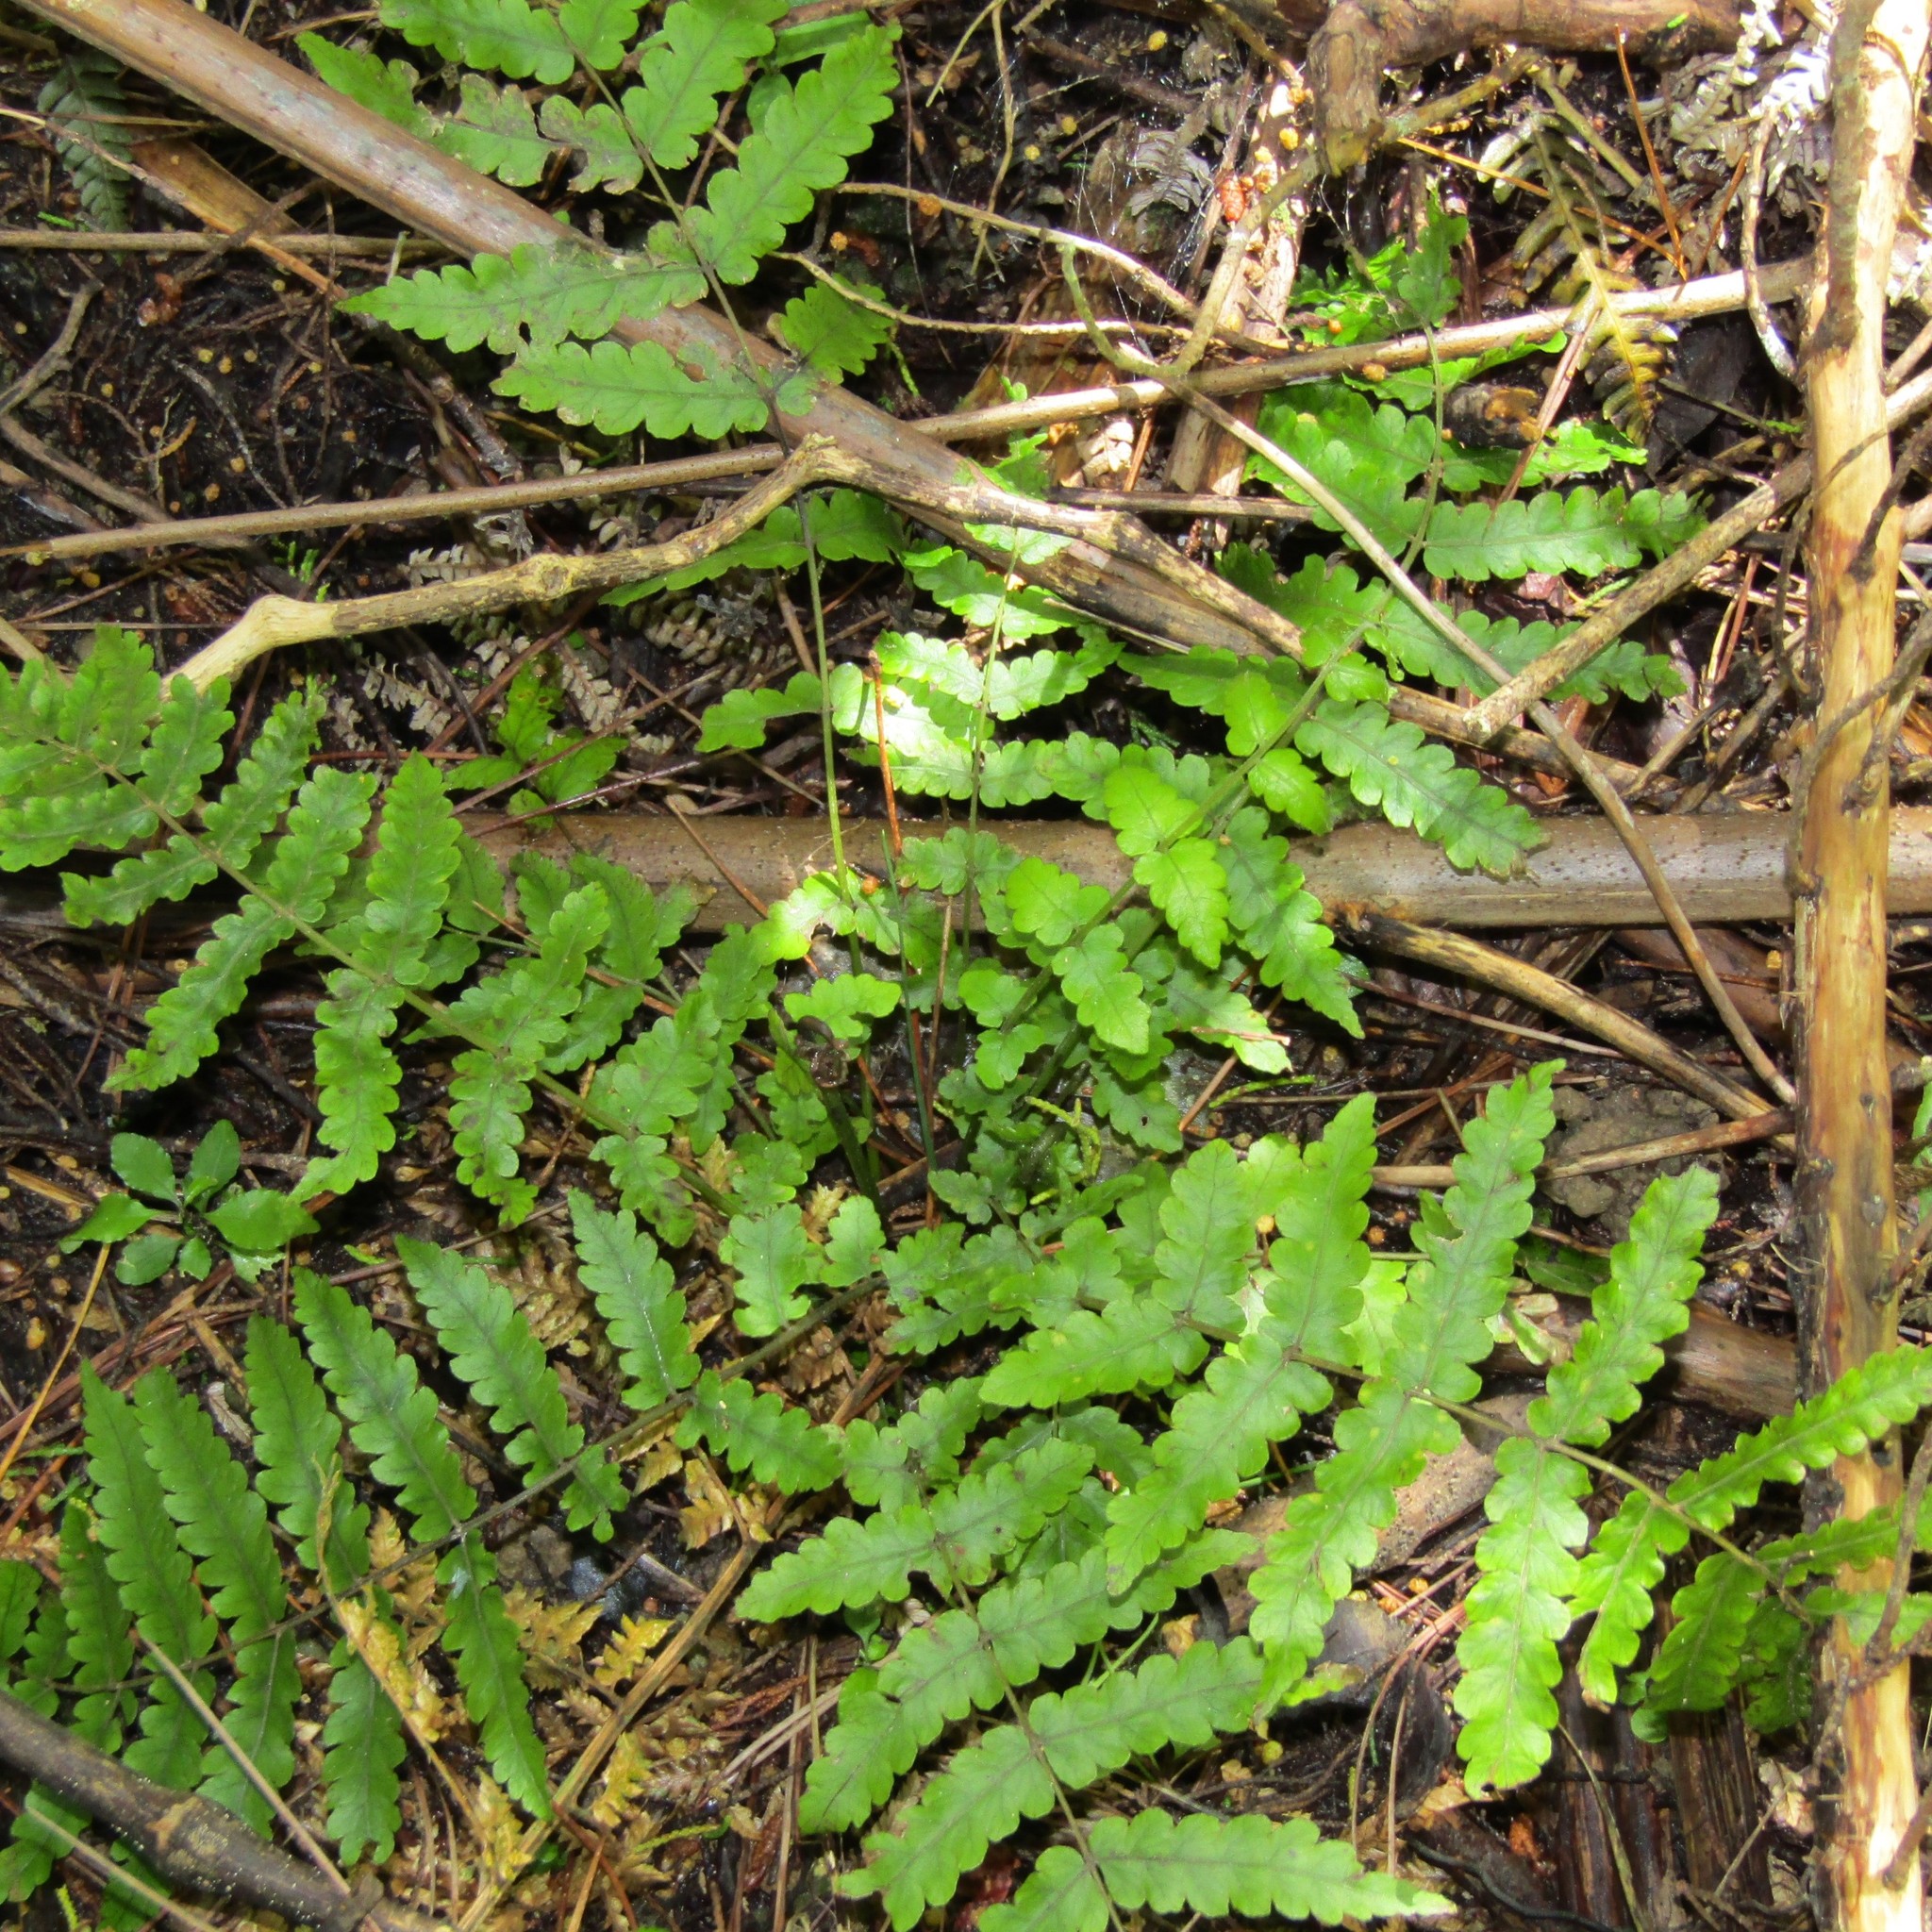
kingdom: Plantae
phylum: Tracheophyta
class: Polypodiopsida
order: Polypodiales
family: Thelypteridaceae
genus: Pakau
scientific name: Pakau pennigera
